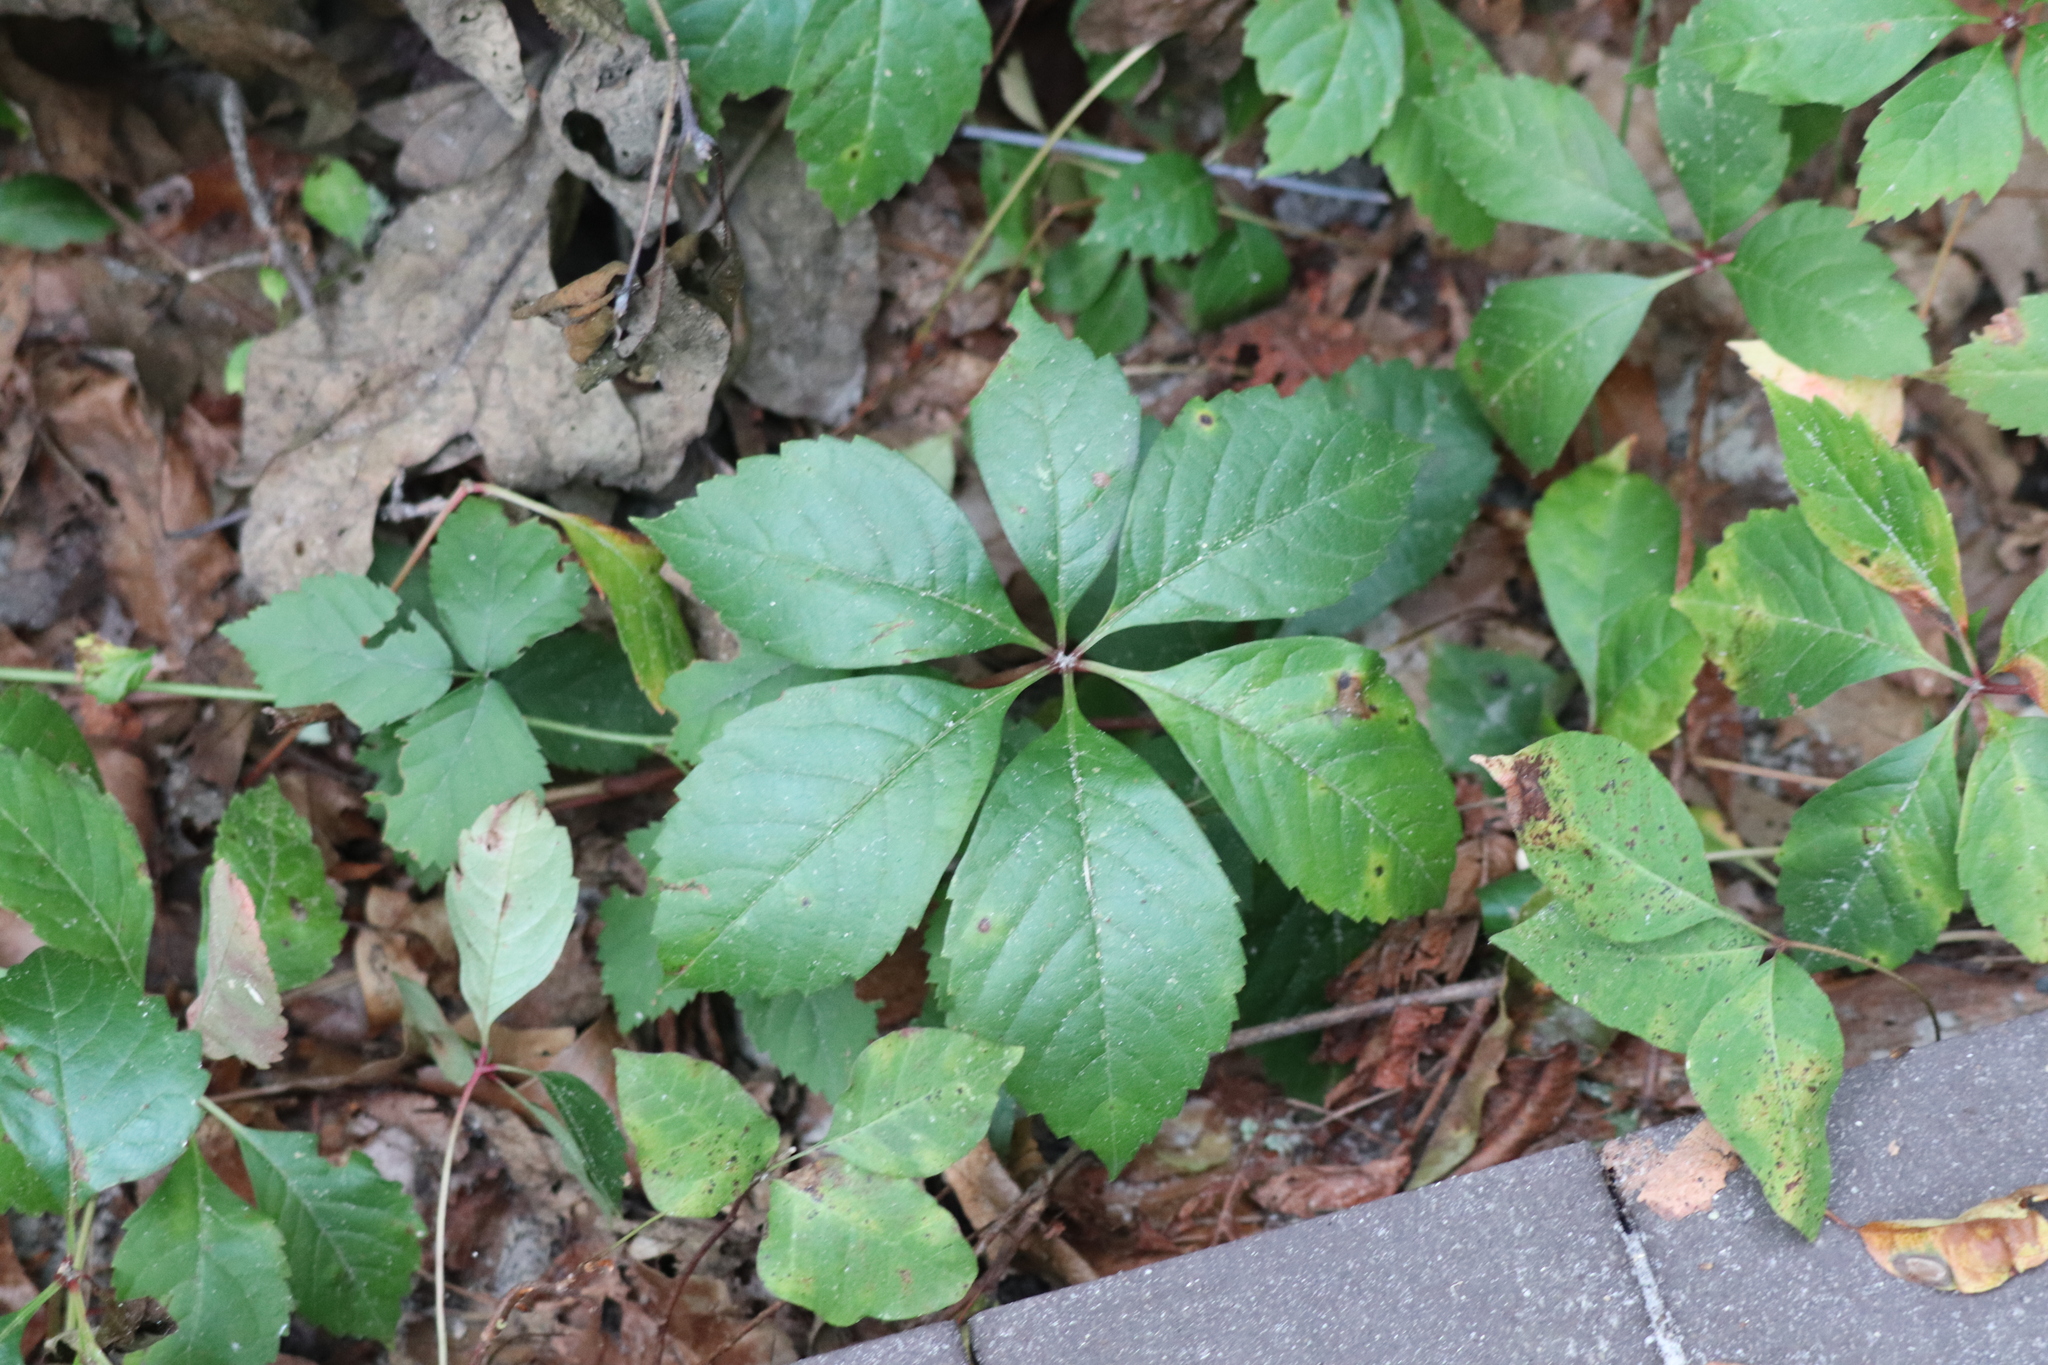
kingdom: Plantae
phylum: Tracheophyta
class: Magnoliopsida
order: Vitales
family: Vitaceae
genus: Parthenocissus
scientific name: Parthenocissus quinquefolia
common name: Virginia-creeper
